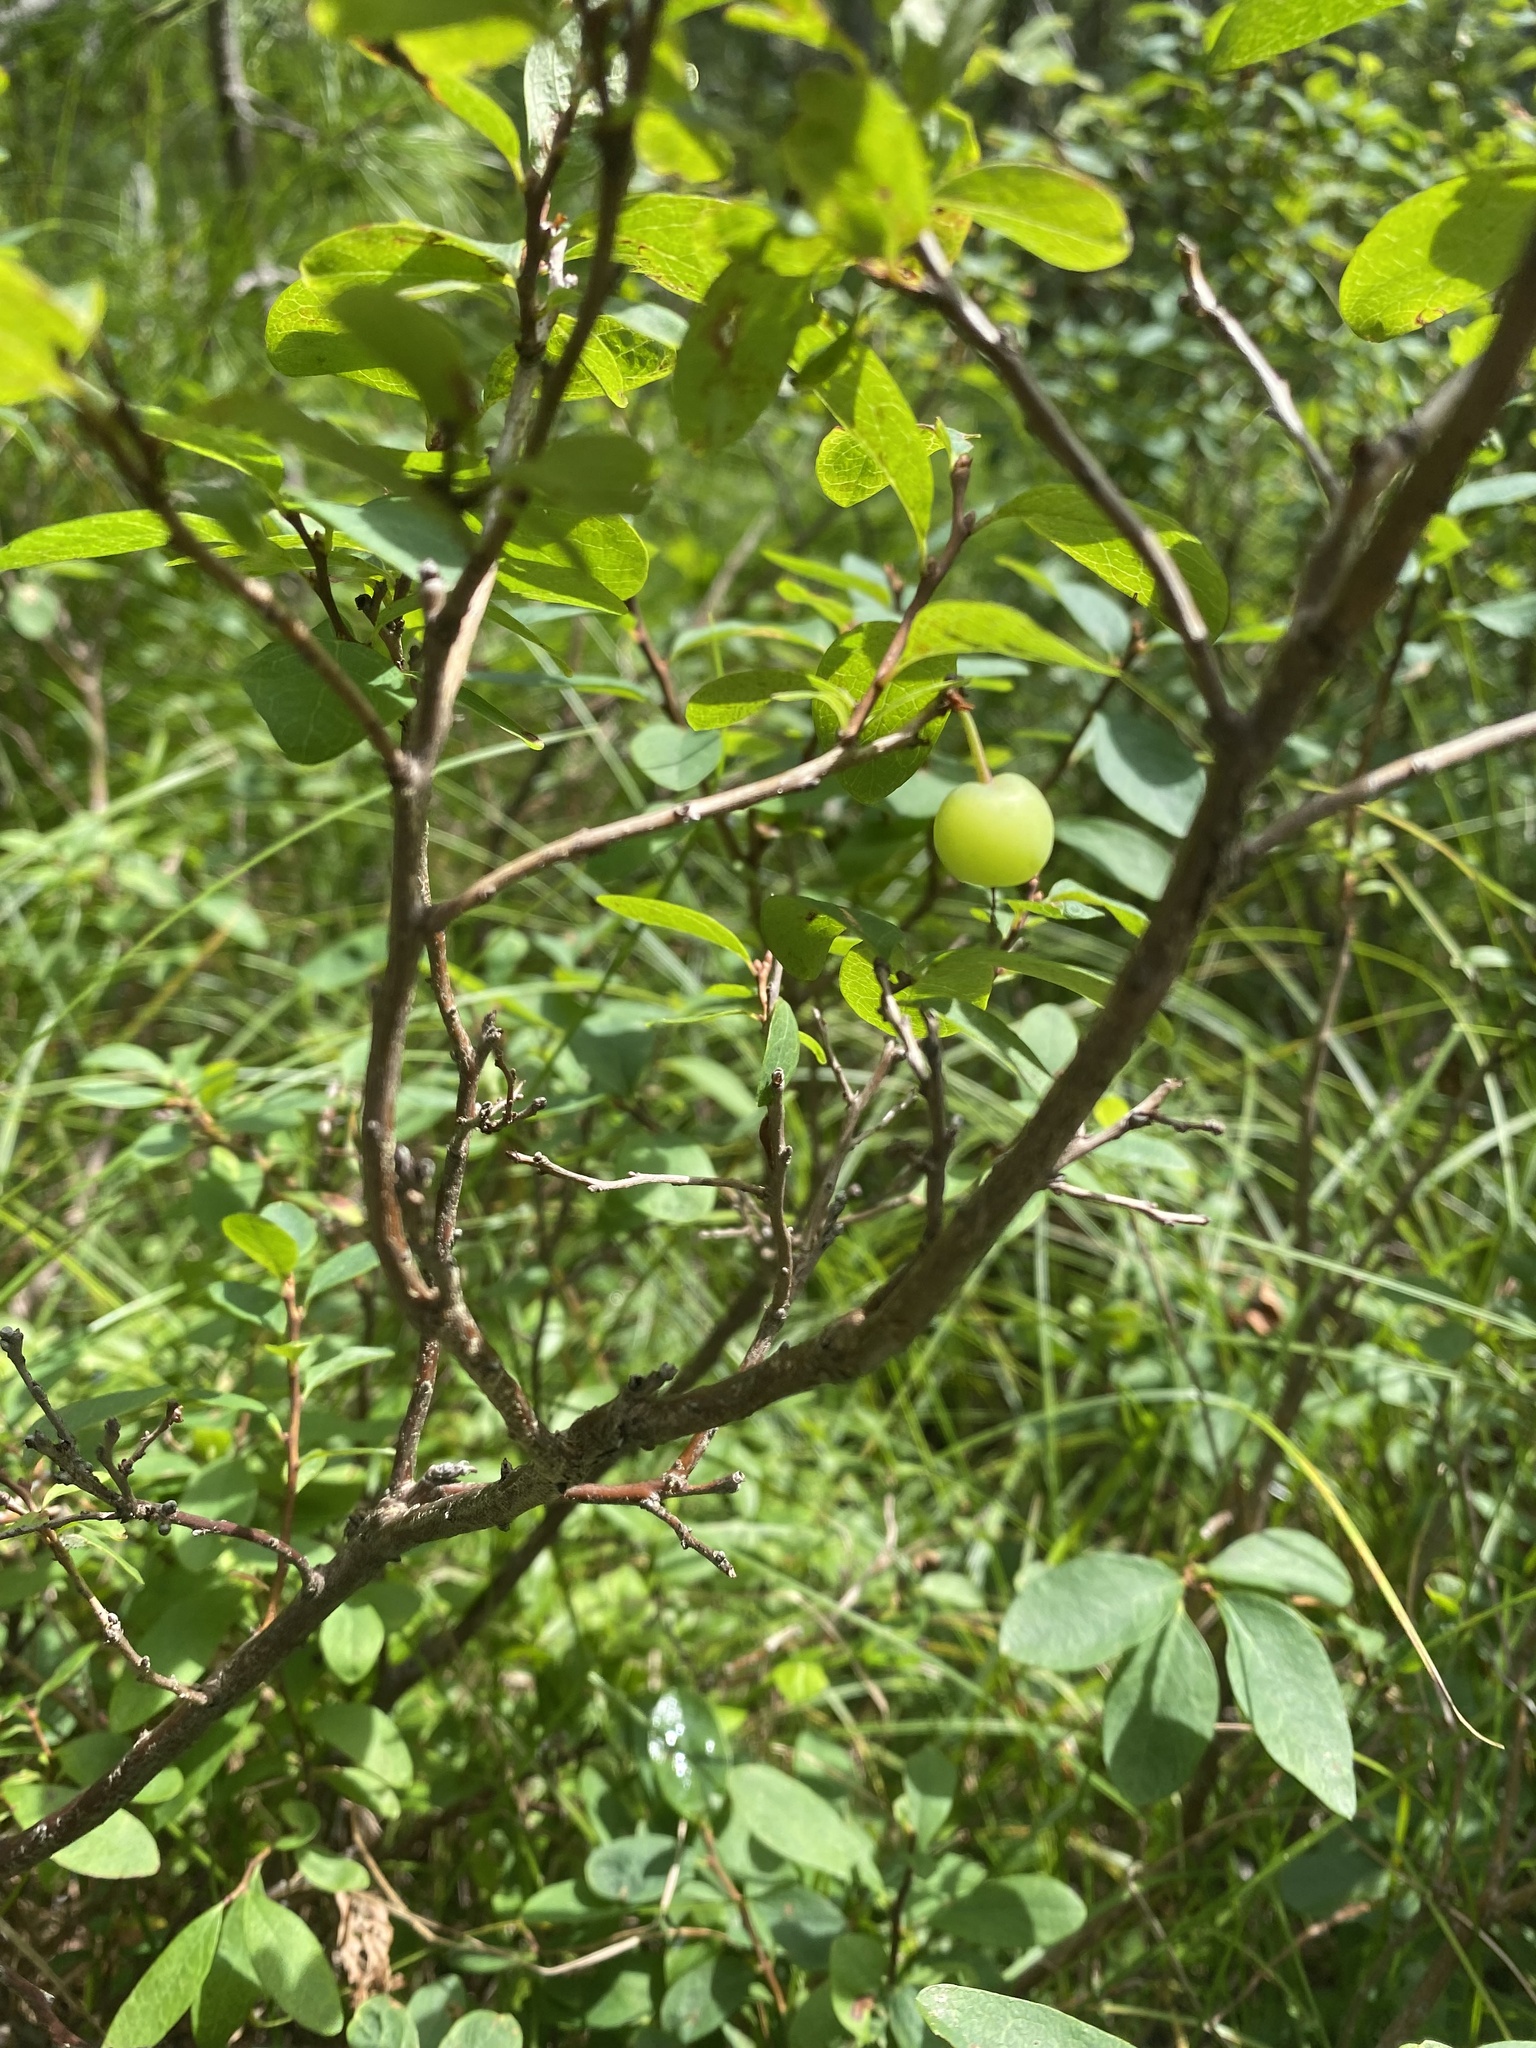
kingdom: Plantae
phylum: Tracheophyta
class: Magnoliopsida
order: Ericales
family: Ericaceae
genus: Vaccinium
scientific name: Vaccinium uliginosum
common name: Bog bilberry
